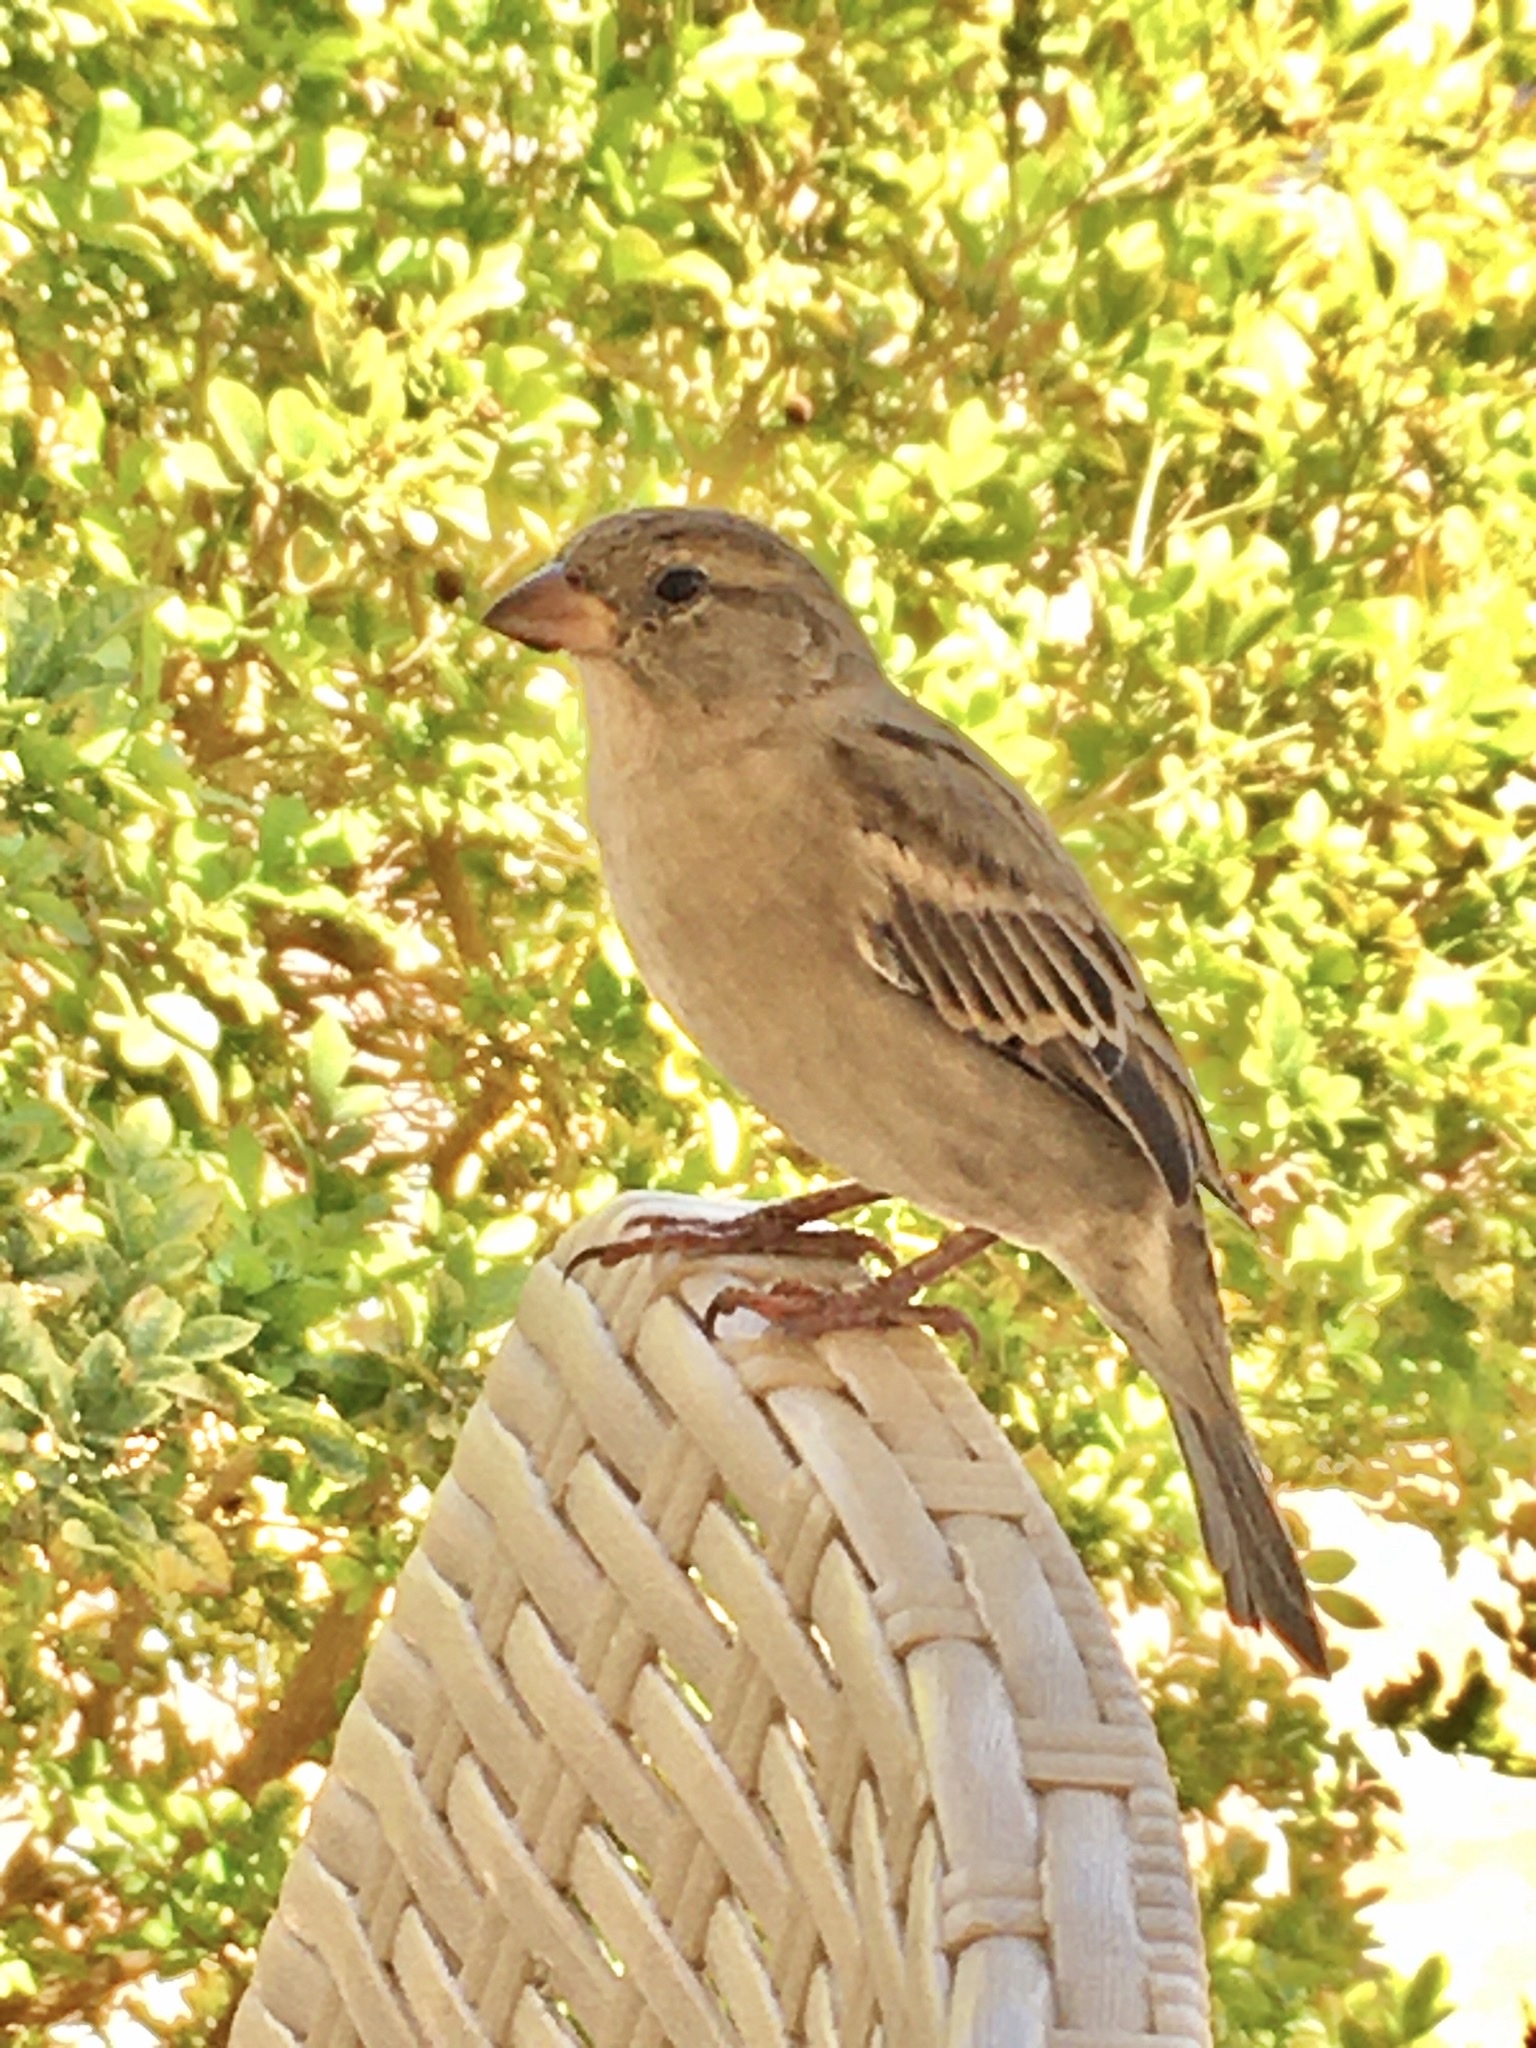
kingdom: Animalia
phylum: Chordata
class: Aves
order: Passeriformes
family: Passeridae
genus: Passer
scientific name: Passer domesticus
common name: House sparrow
